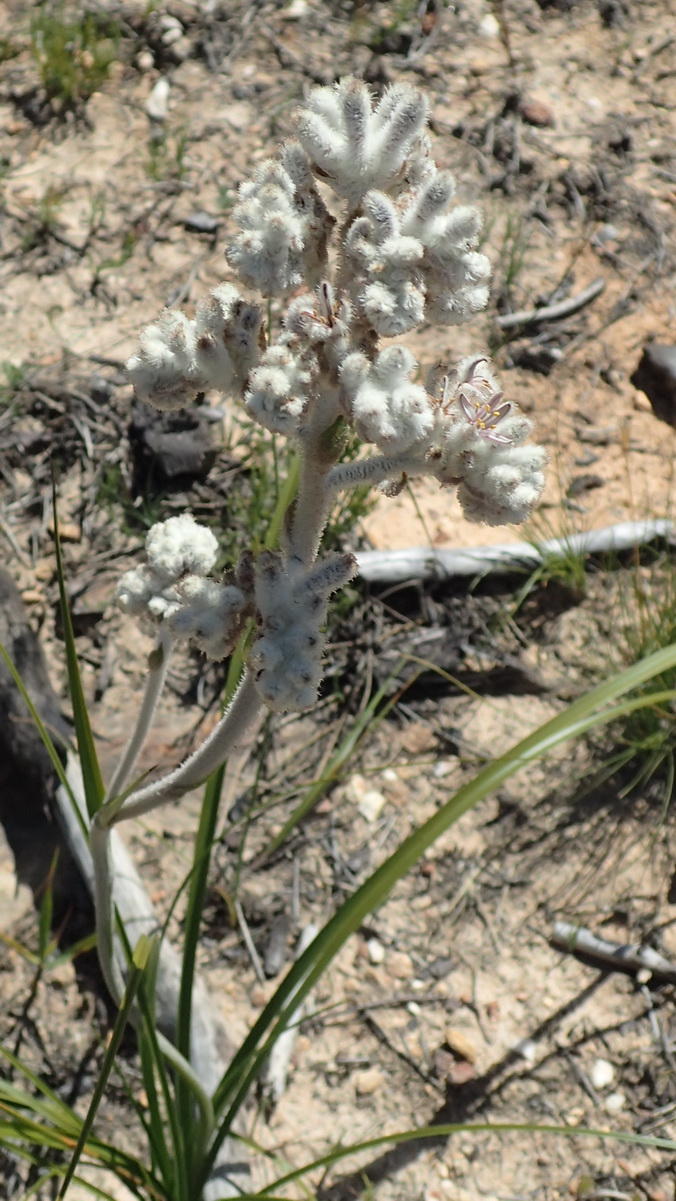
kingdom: Plantae
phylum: Tracheophyta
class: Liliopsida
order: Asparagales
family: Lanariaceae
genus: Lanaria
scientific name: Lanaria lanata
